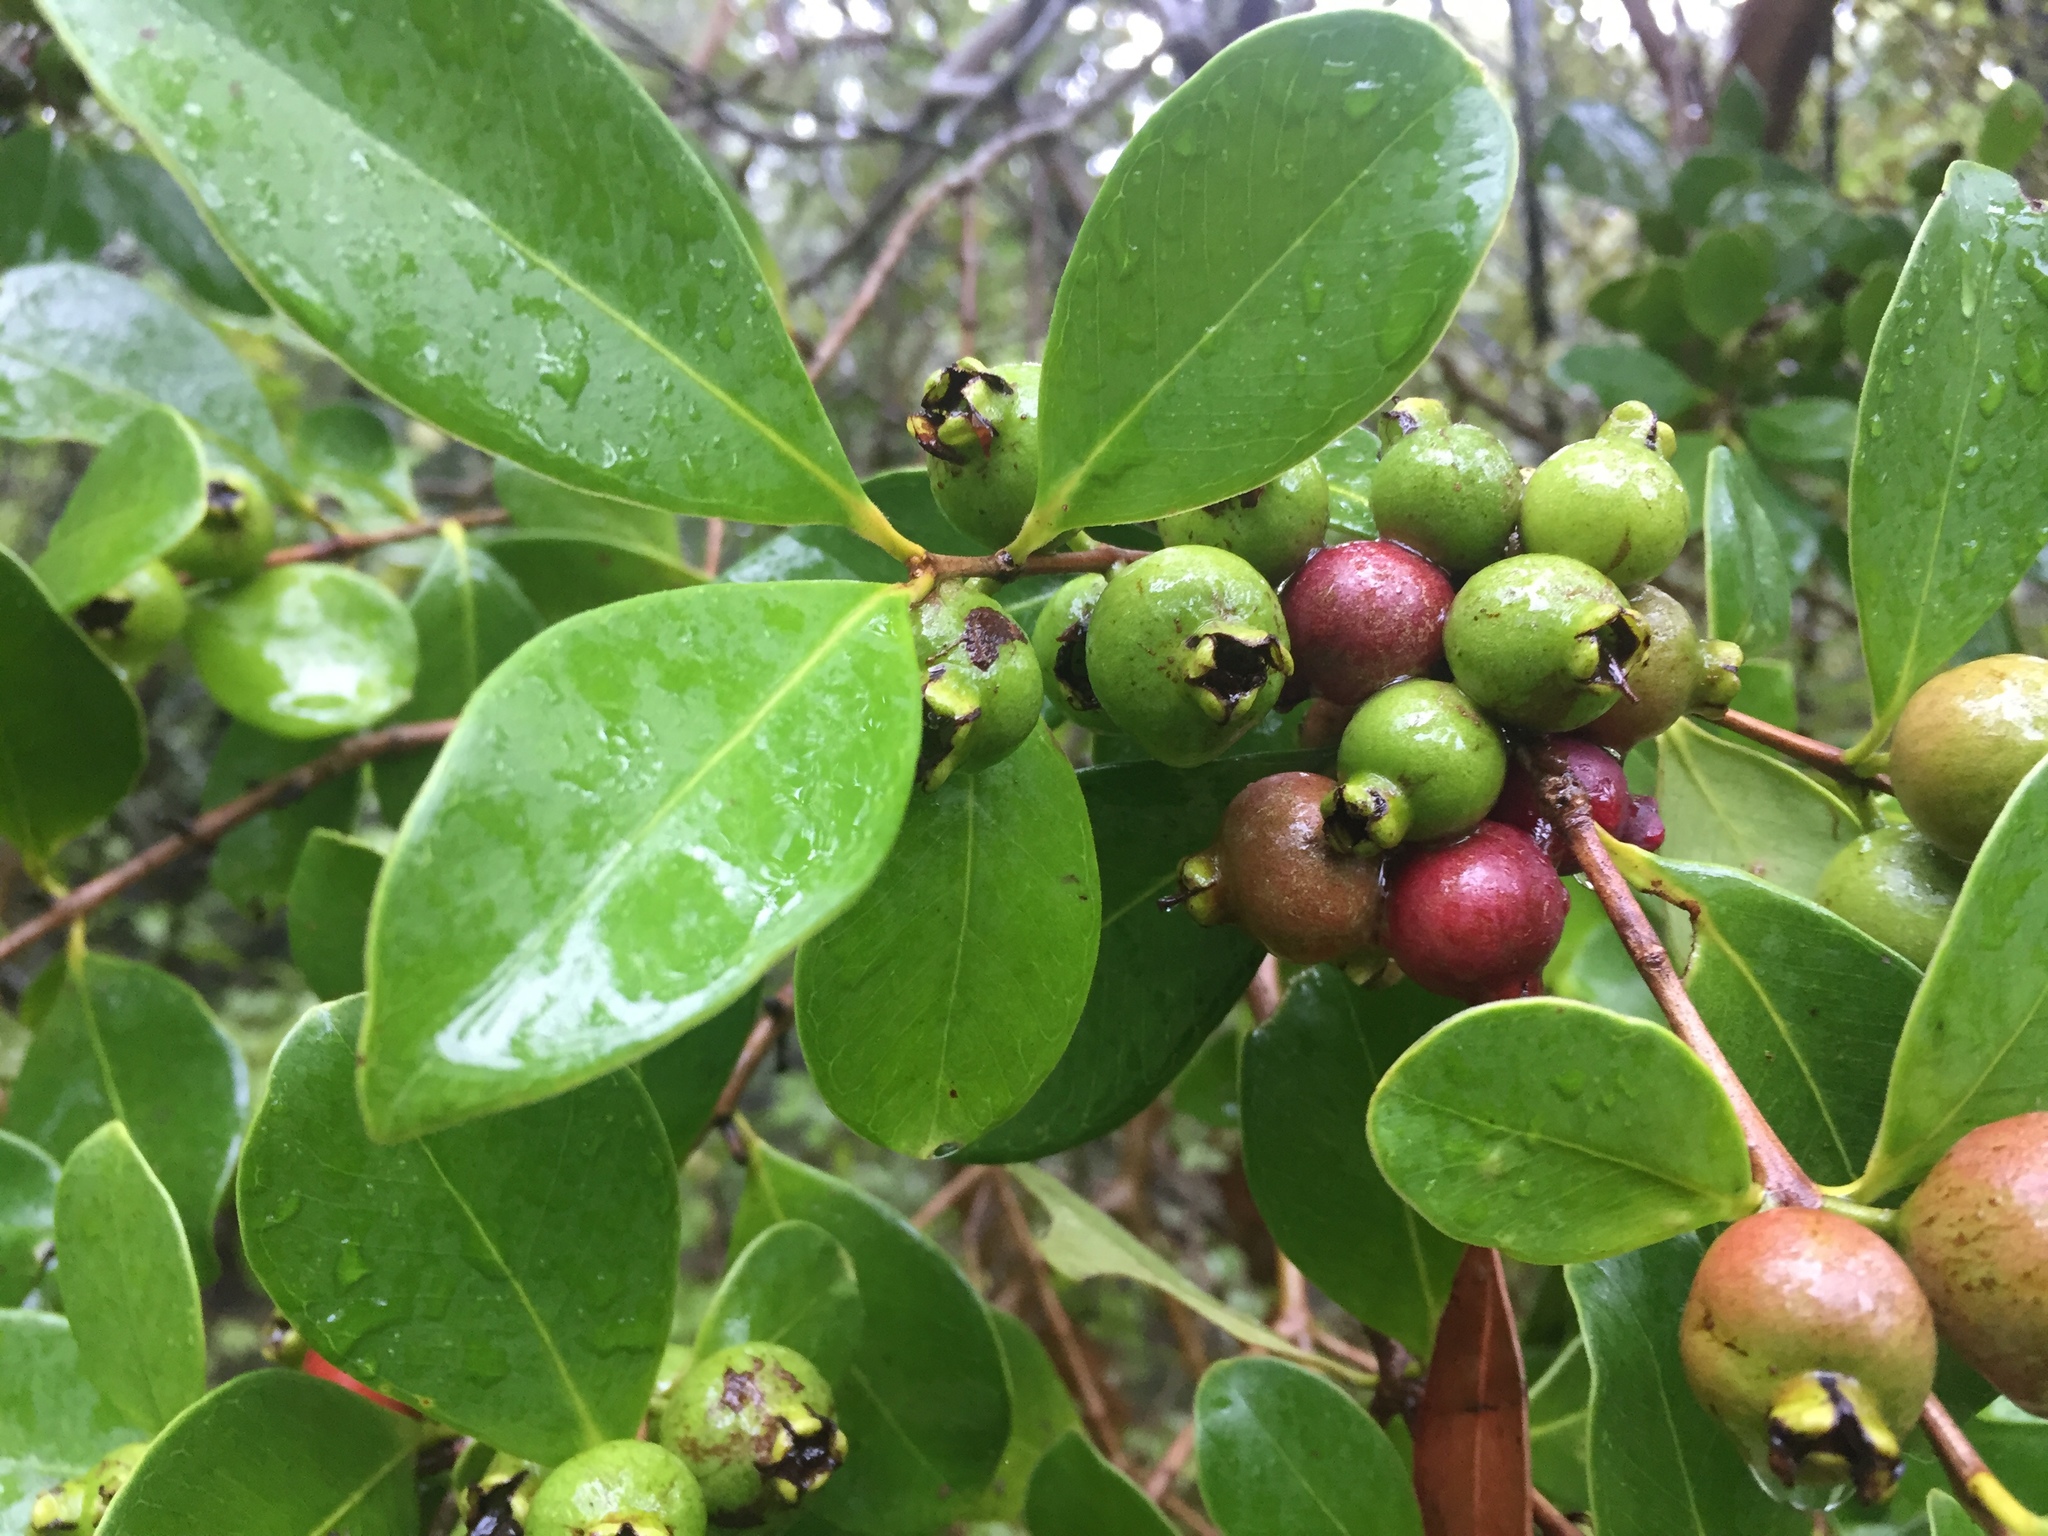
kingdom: Plantae
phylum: Tracheophyta
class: Magnoliopsida
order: Myrtales
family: Myrtaceae
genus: Psidium
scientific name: Psidium cattleianum
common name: Strawberry guava
